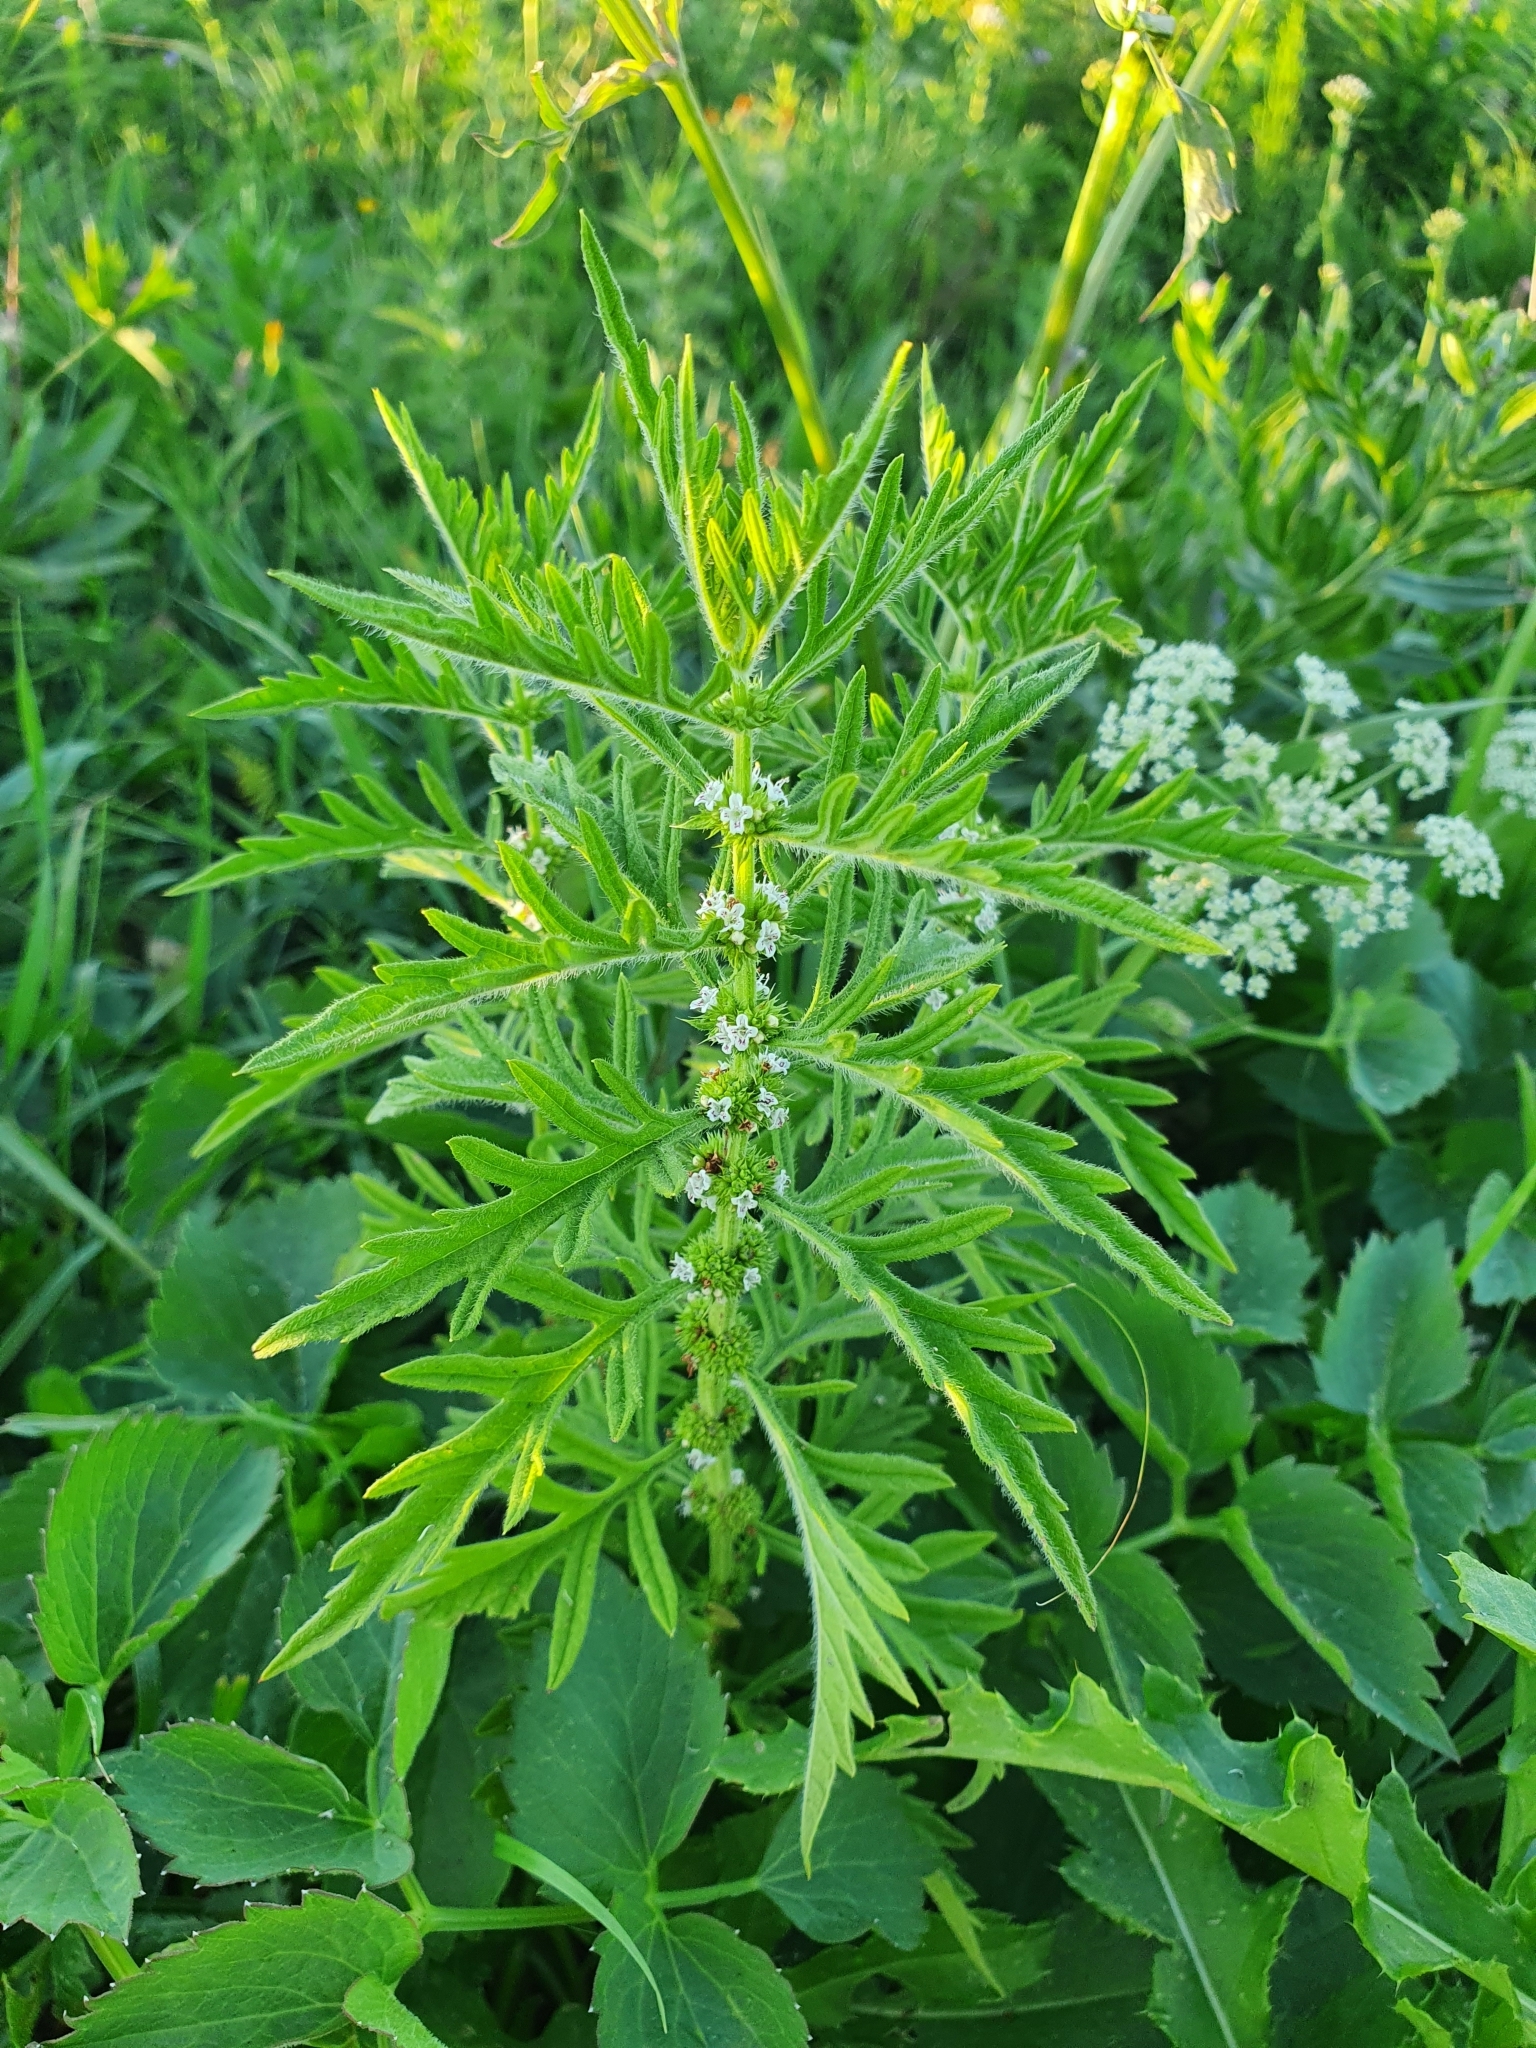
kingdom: Plantae
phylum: Tracheophyta
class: Magnoliopsida
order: Lamiales
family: Lamiaceae
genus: Lycopus
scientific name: Lycopus exaltatus
